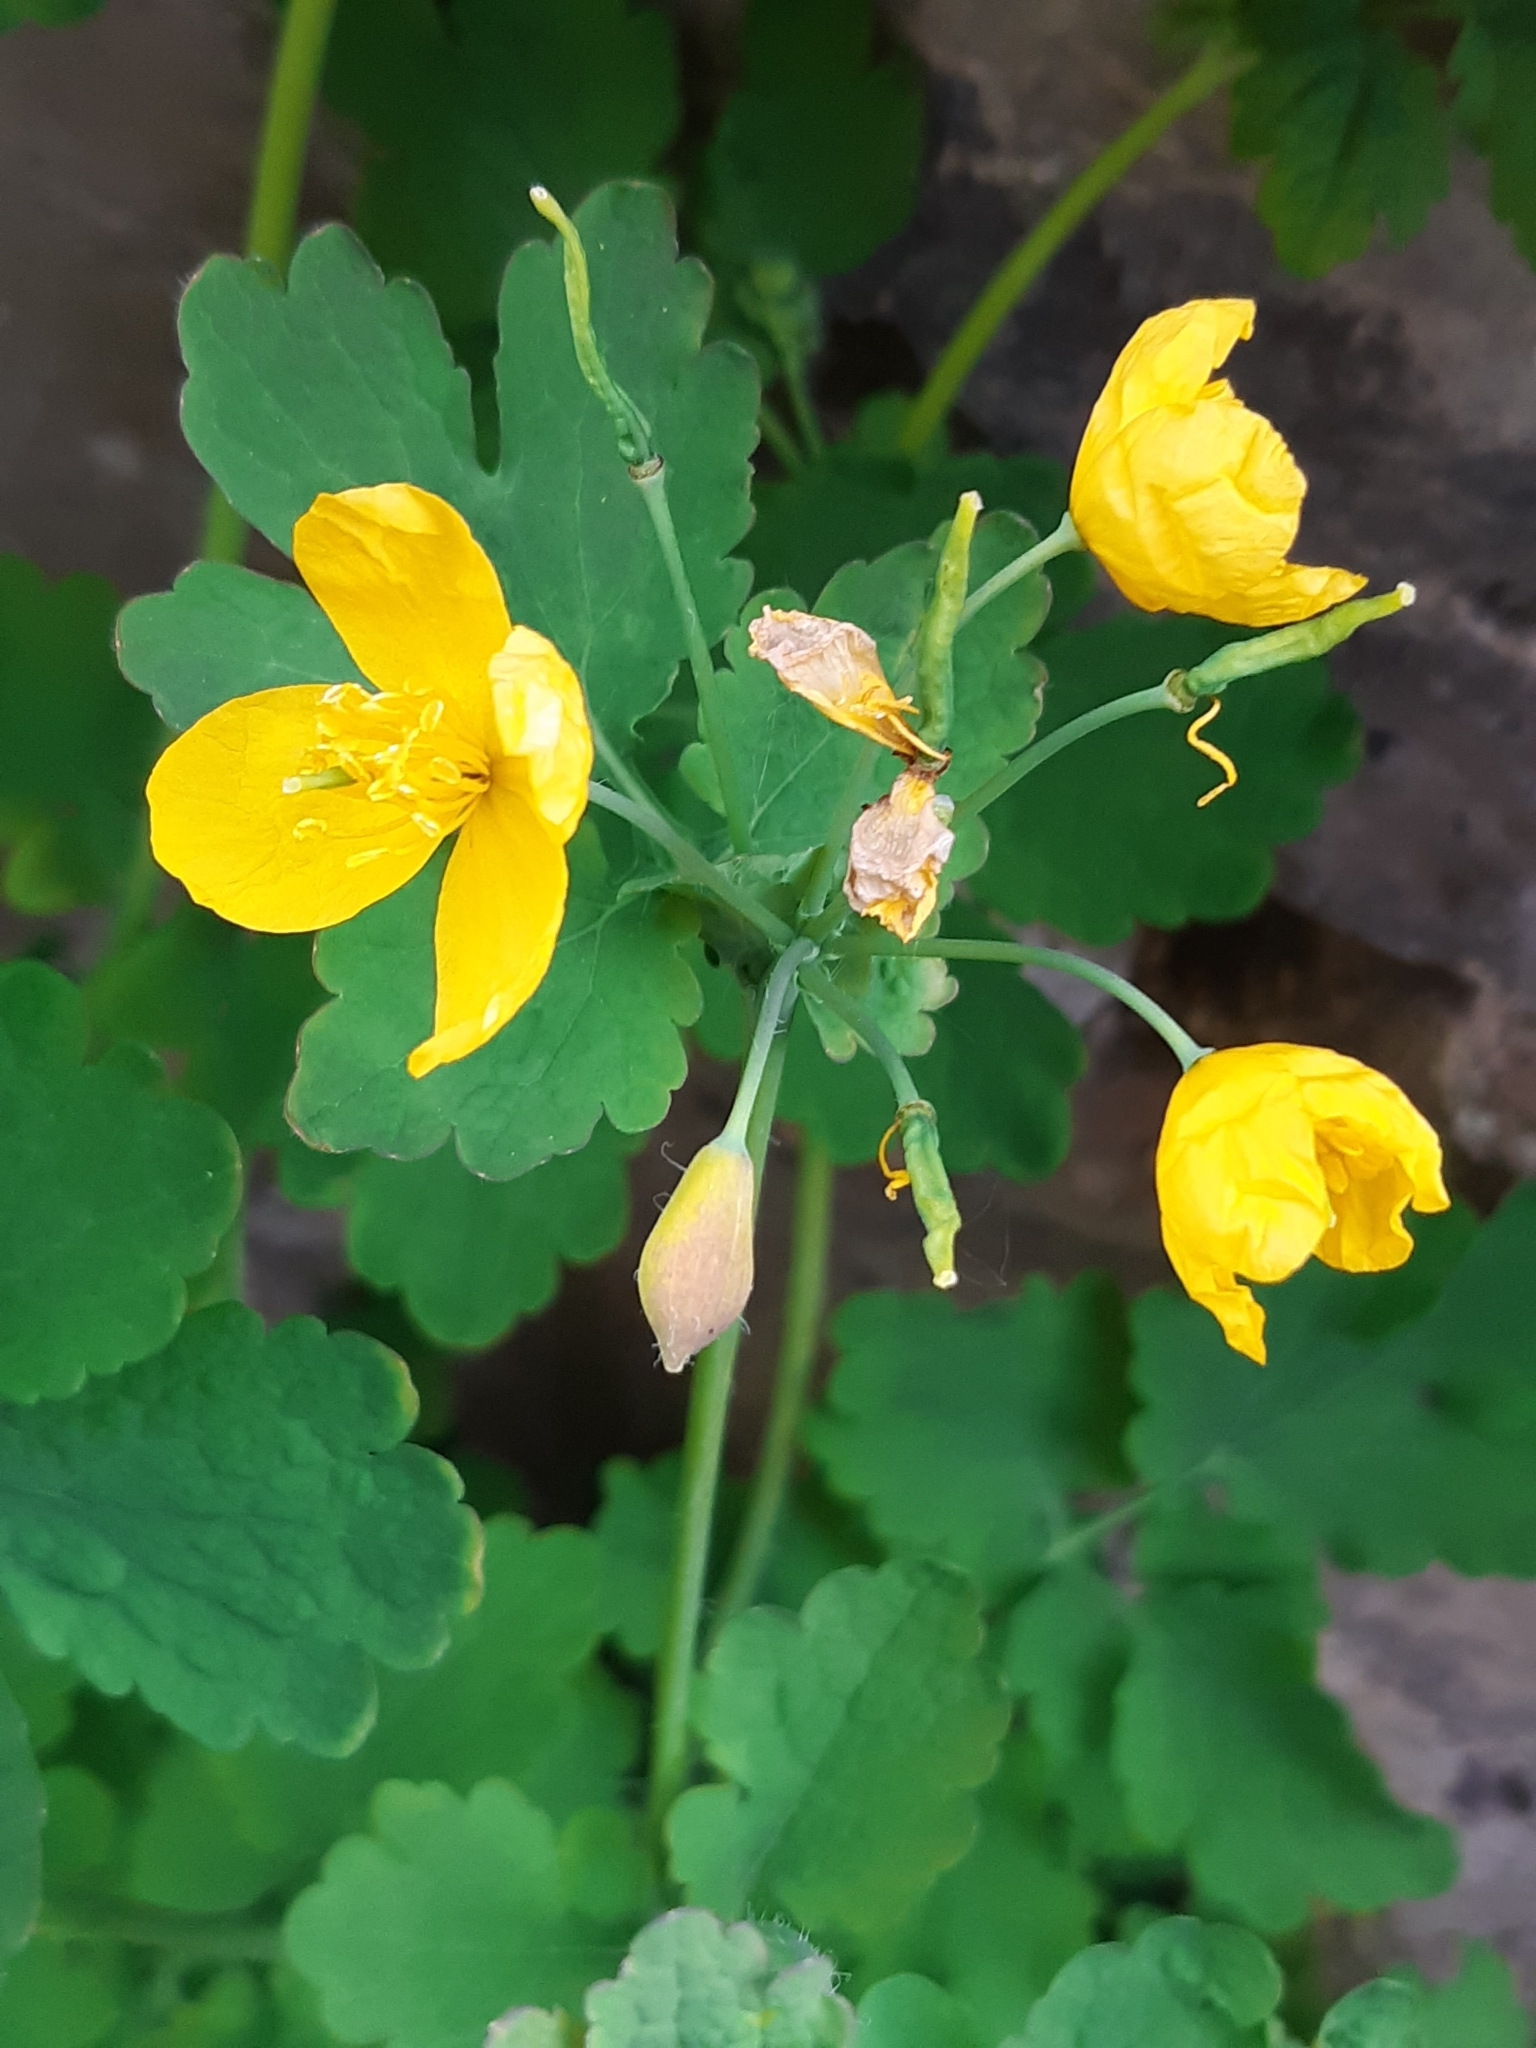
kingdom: Plantae
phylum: Tracheophyta
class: Magnoliopsida
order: Ranunculales
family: Papaveraceae
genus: Chelidonium
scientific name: Chelidonium majus
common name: Greater celandine
